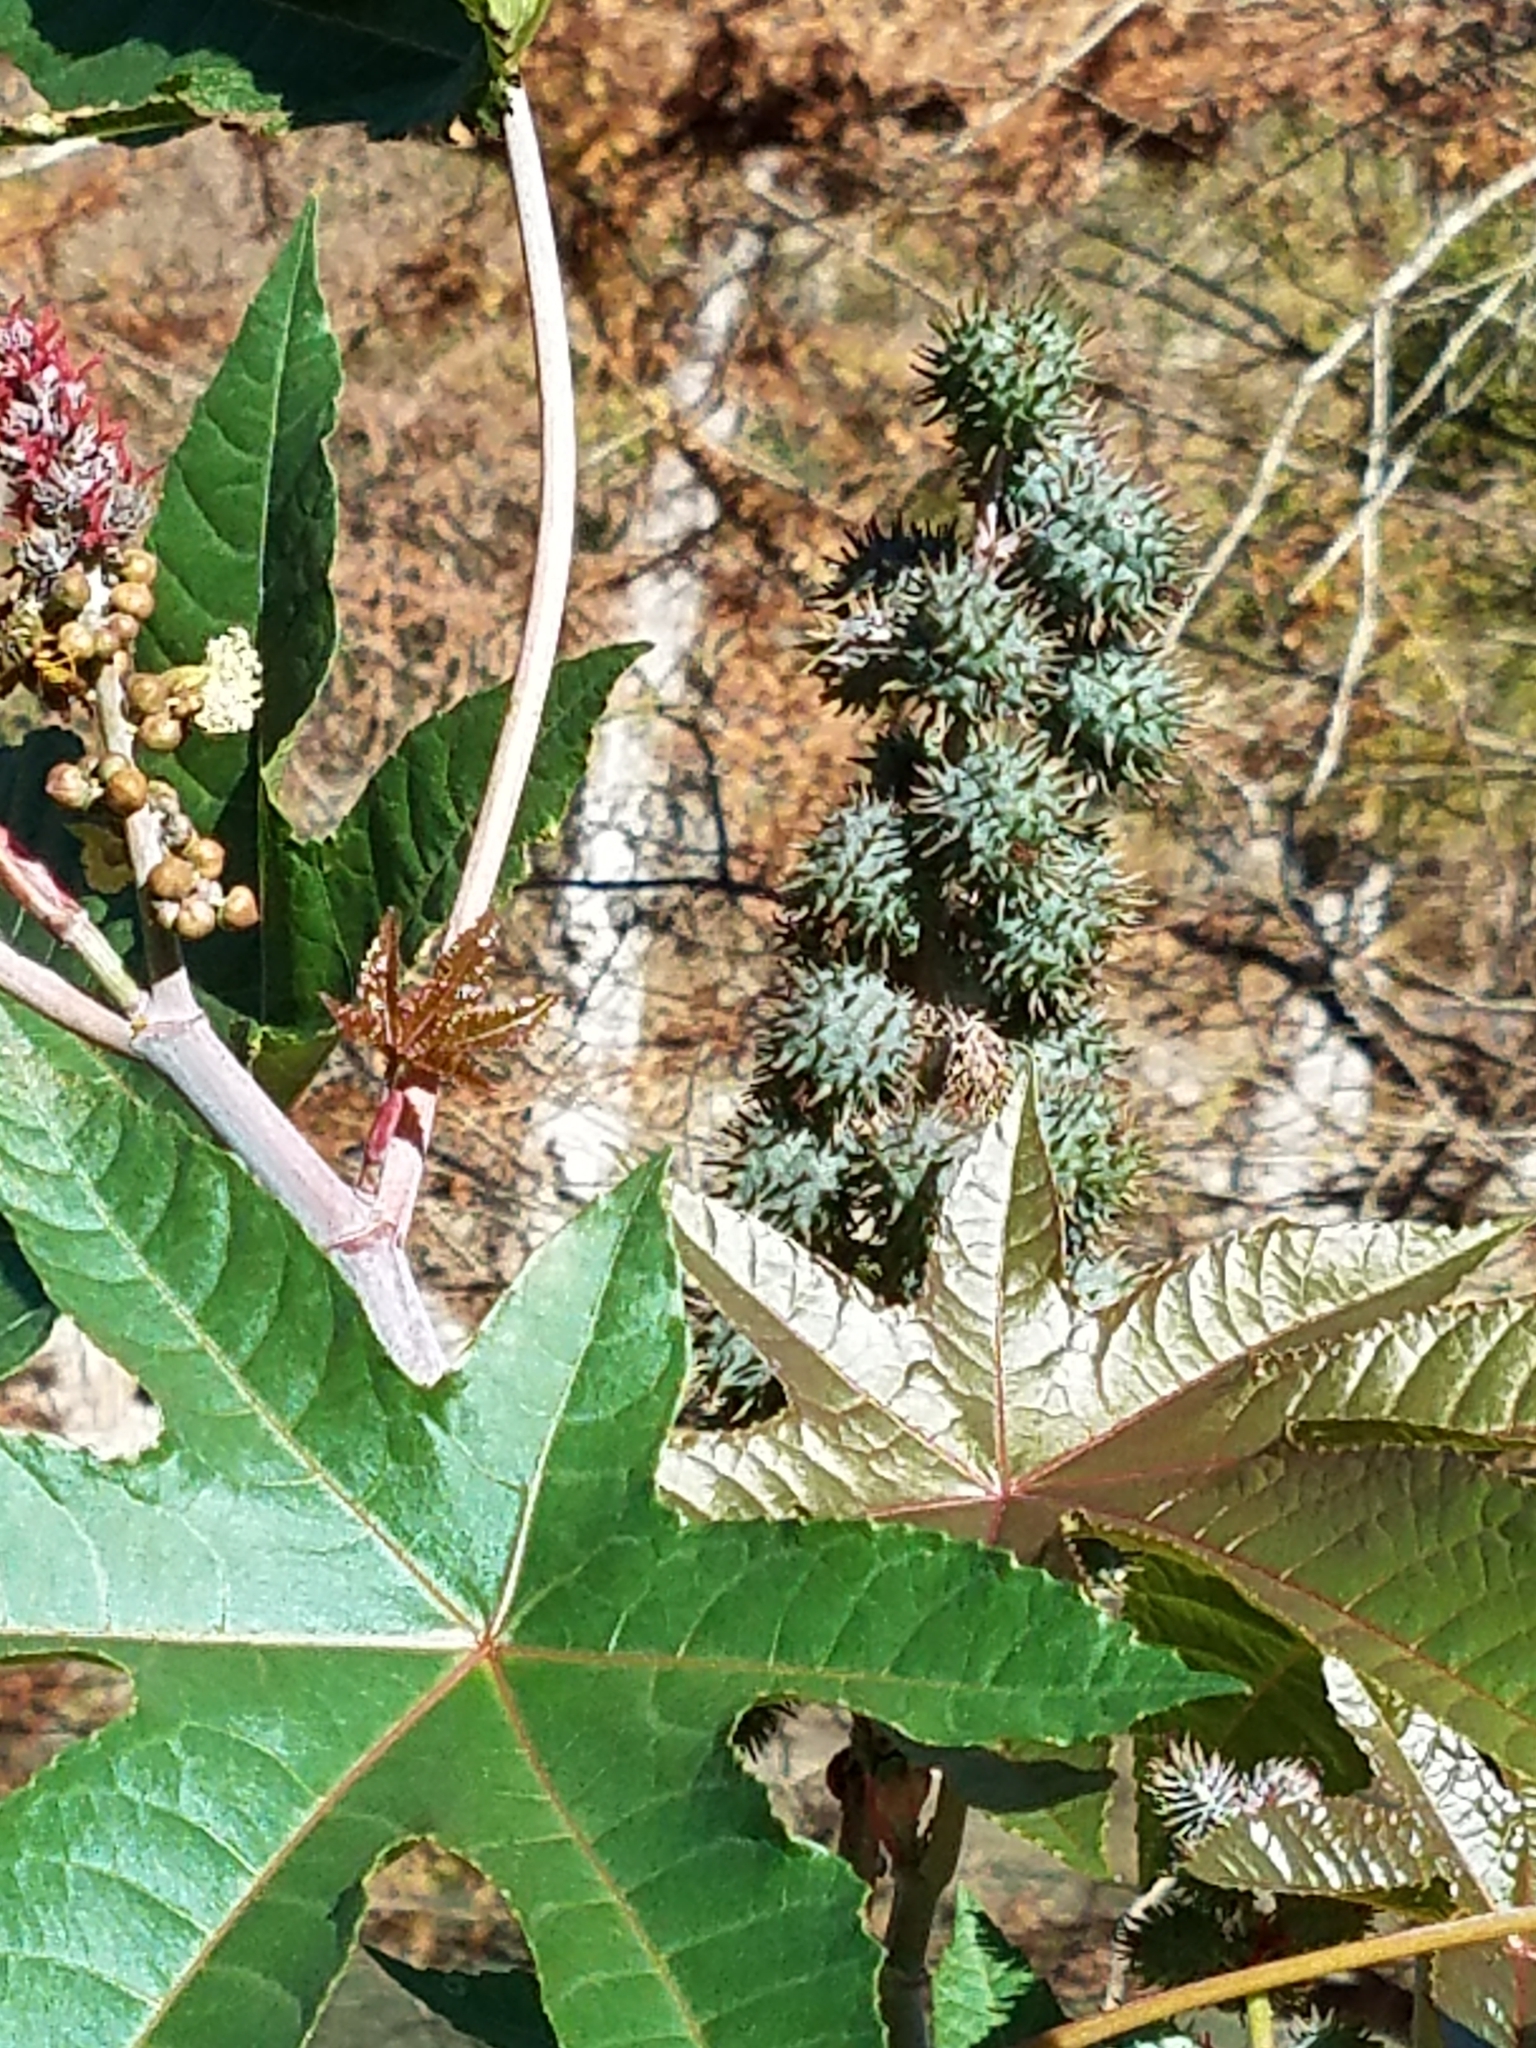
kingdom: Plantae
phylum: Tracheophyta
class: Magnoliopsida
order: Malpighiales
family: Euphorbiaceae
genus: Ricinus
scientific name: Ricinus communis
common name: Castor-oil-plant
